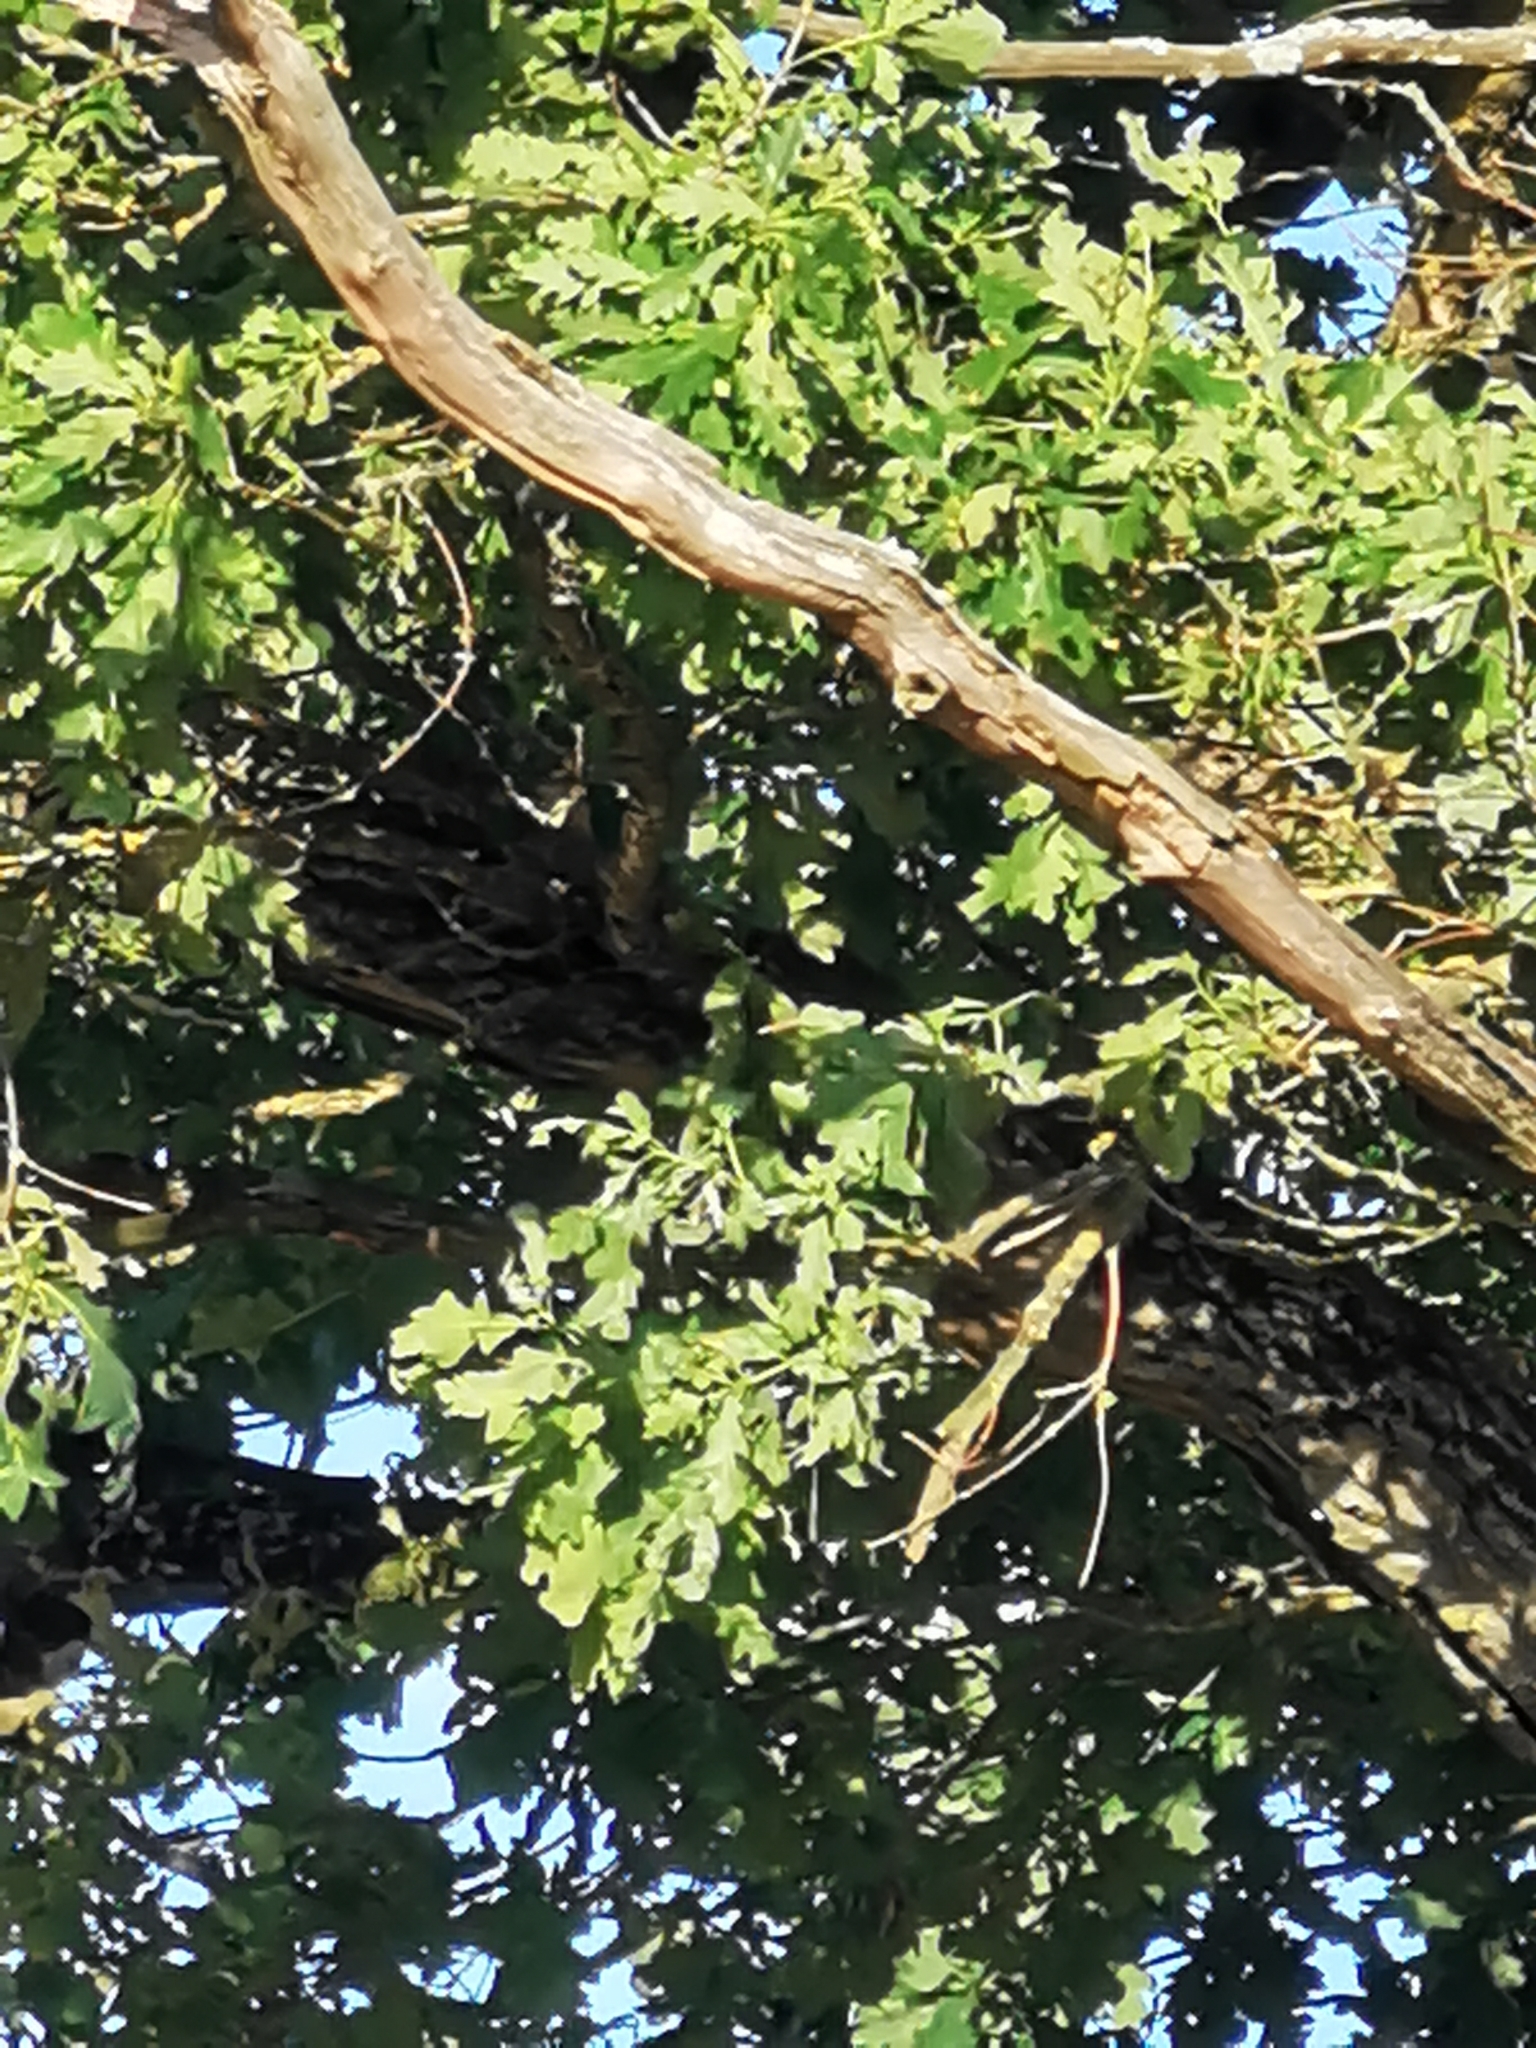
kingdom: Plantae
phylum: Tracheophyta
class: Magnoliopsida
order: Fagales
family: Fagaceae
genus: Quercus
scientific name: Quercus robur
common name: Pedunculate oak
